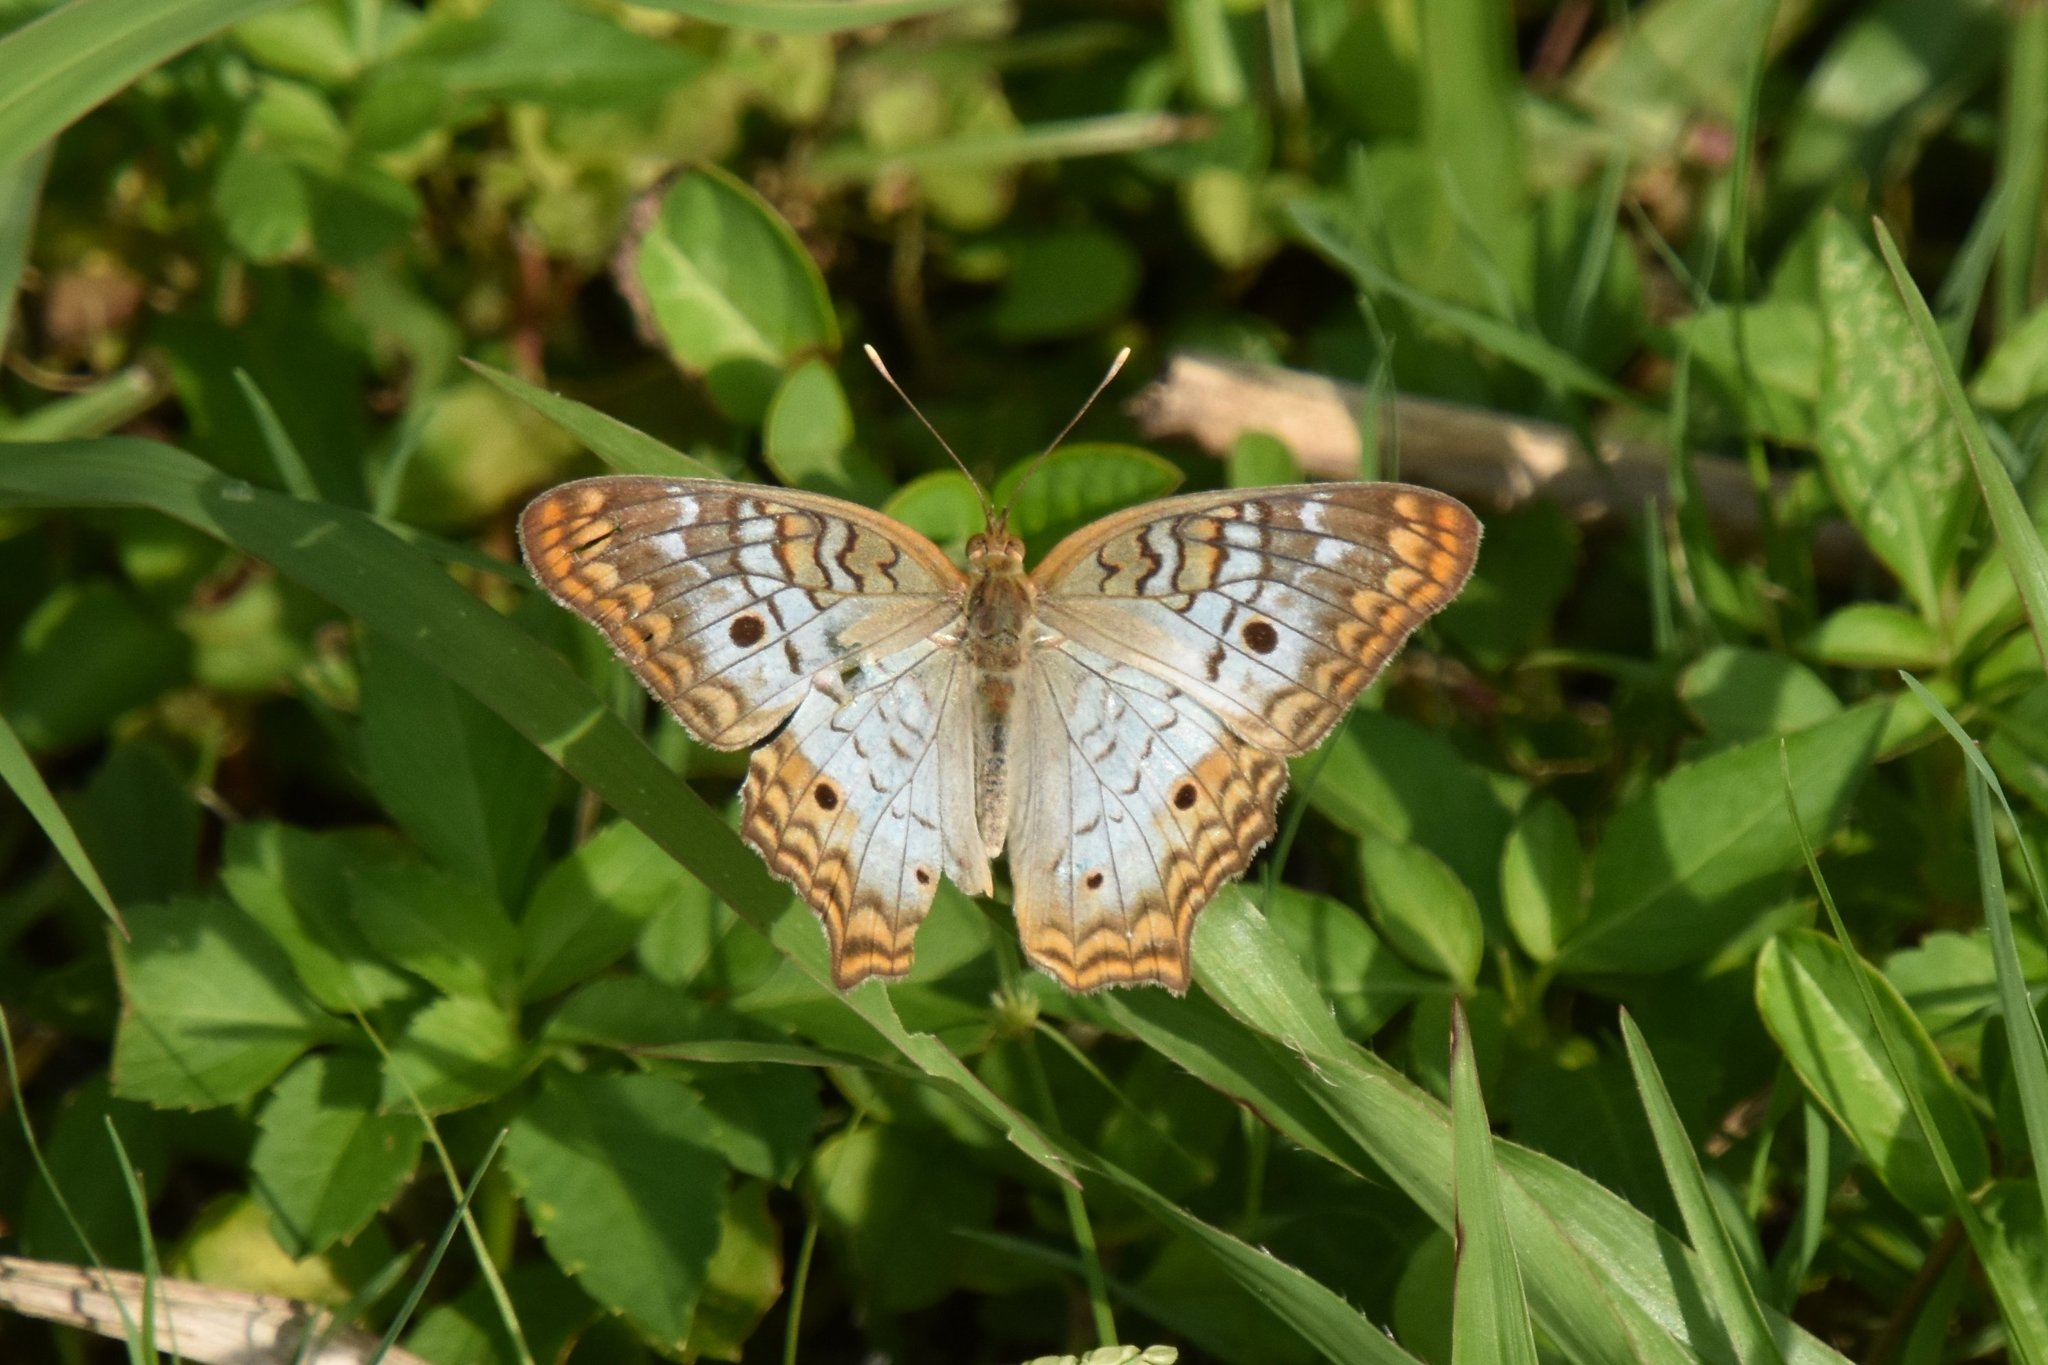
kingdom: Animalia
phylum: Arthropoda
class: Insecta
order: Lepidoptera
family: Nymphalidae
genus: Anartia
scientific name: Anartia jatrophae
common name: White peacock
